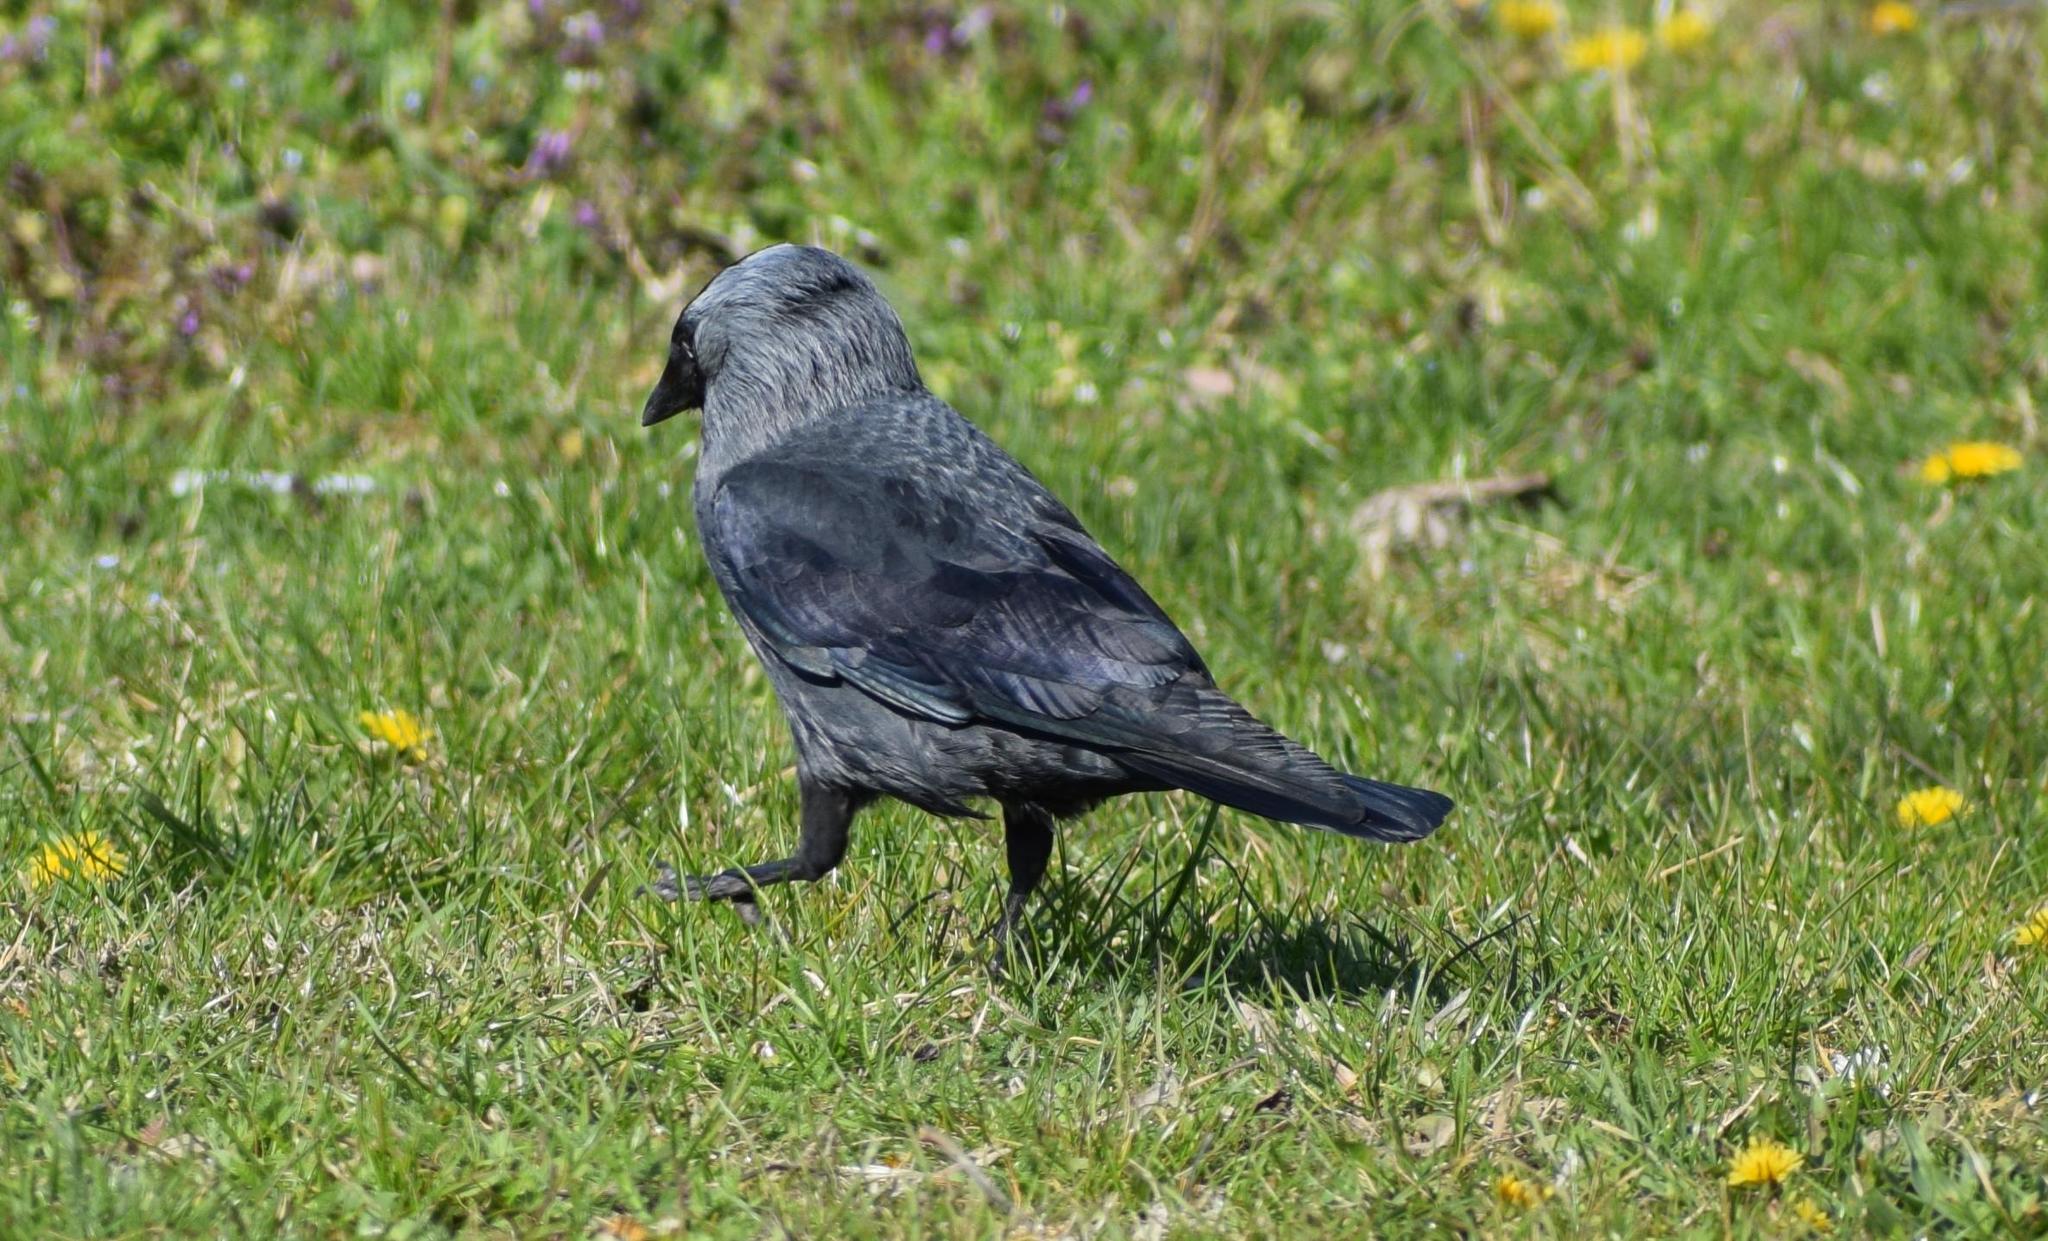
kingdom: Animalia
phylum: Chordata
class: Aves
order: Passeriformes
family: Corvidae
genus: Coloeus
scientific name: Coloeus monedula
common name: Western jackdaw
